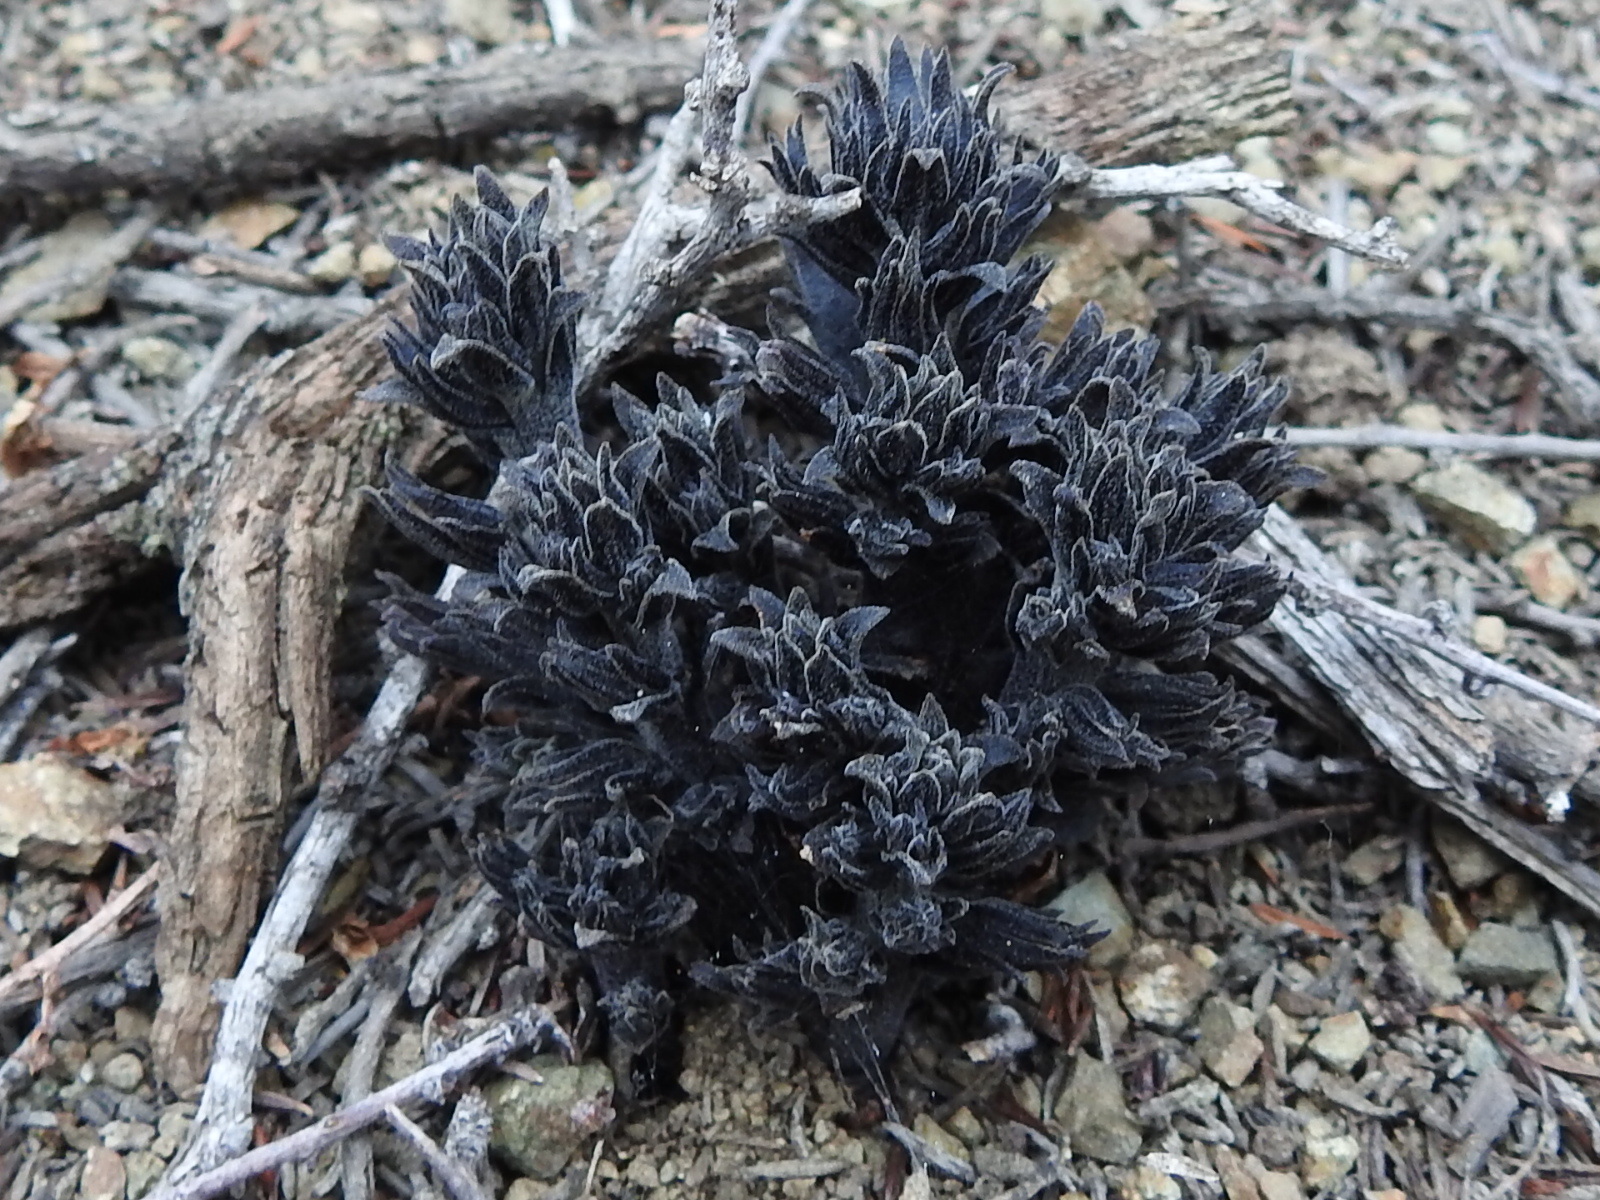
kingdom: Plantae
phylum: Tracheophyta
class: Magnoliopsida
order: Lamiales
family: Orobanchaceae
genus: Aphyllon
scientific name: Aphyllon tuberosum
